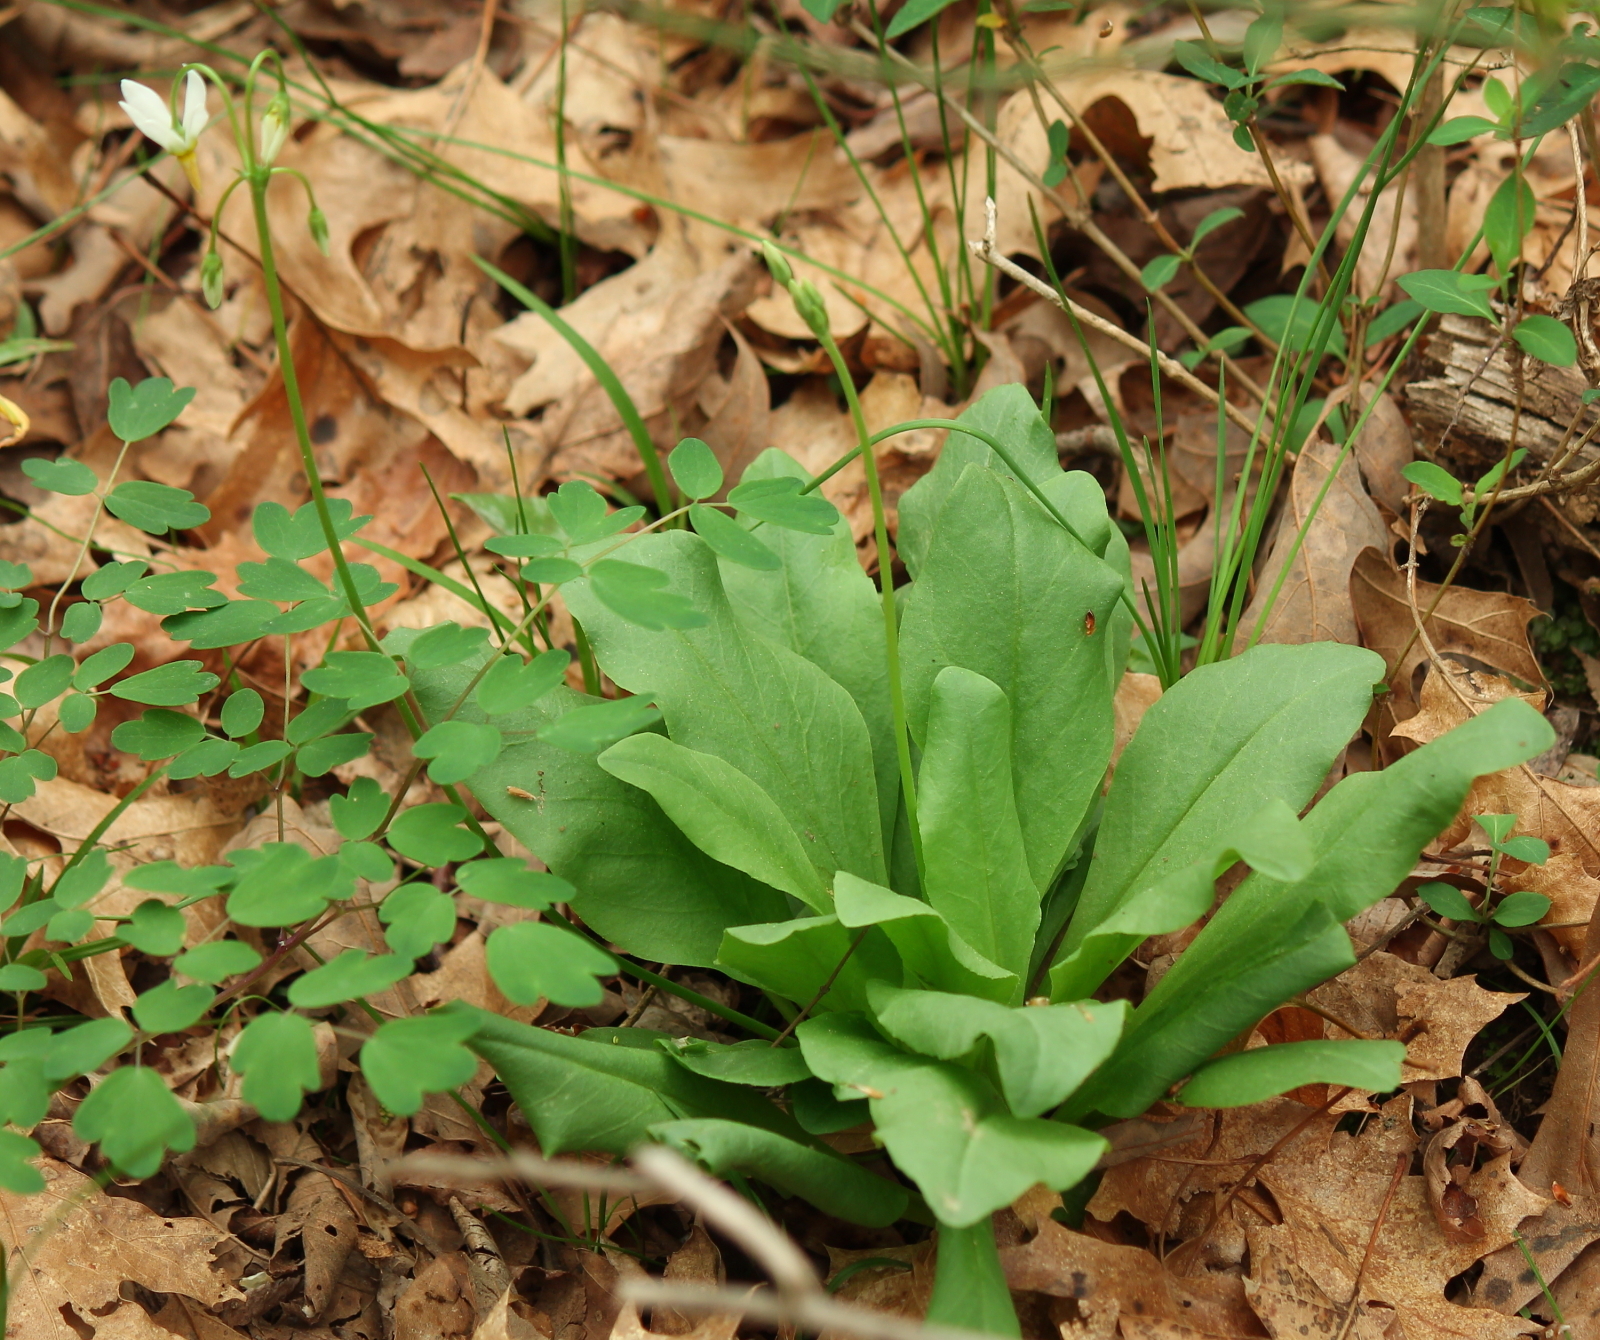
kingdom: Plantae
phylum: Tracheophyta
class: Magnoliopsida
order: Ericales
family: Primulaceae
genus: Dodecatheon
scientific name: Dodecatheon meadia
